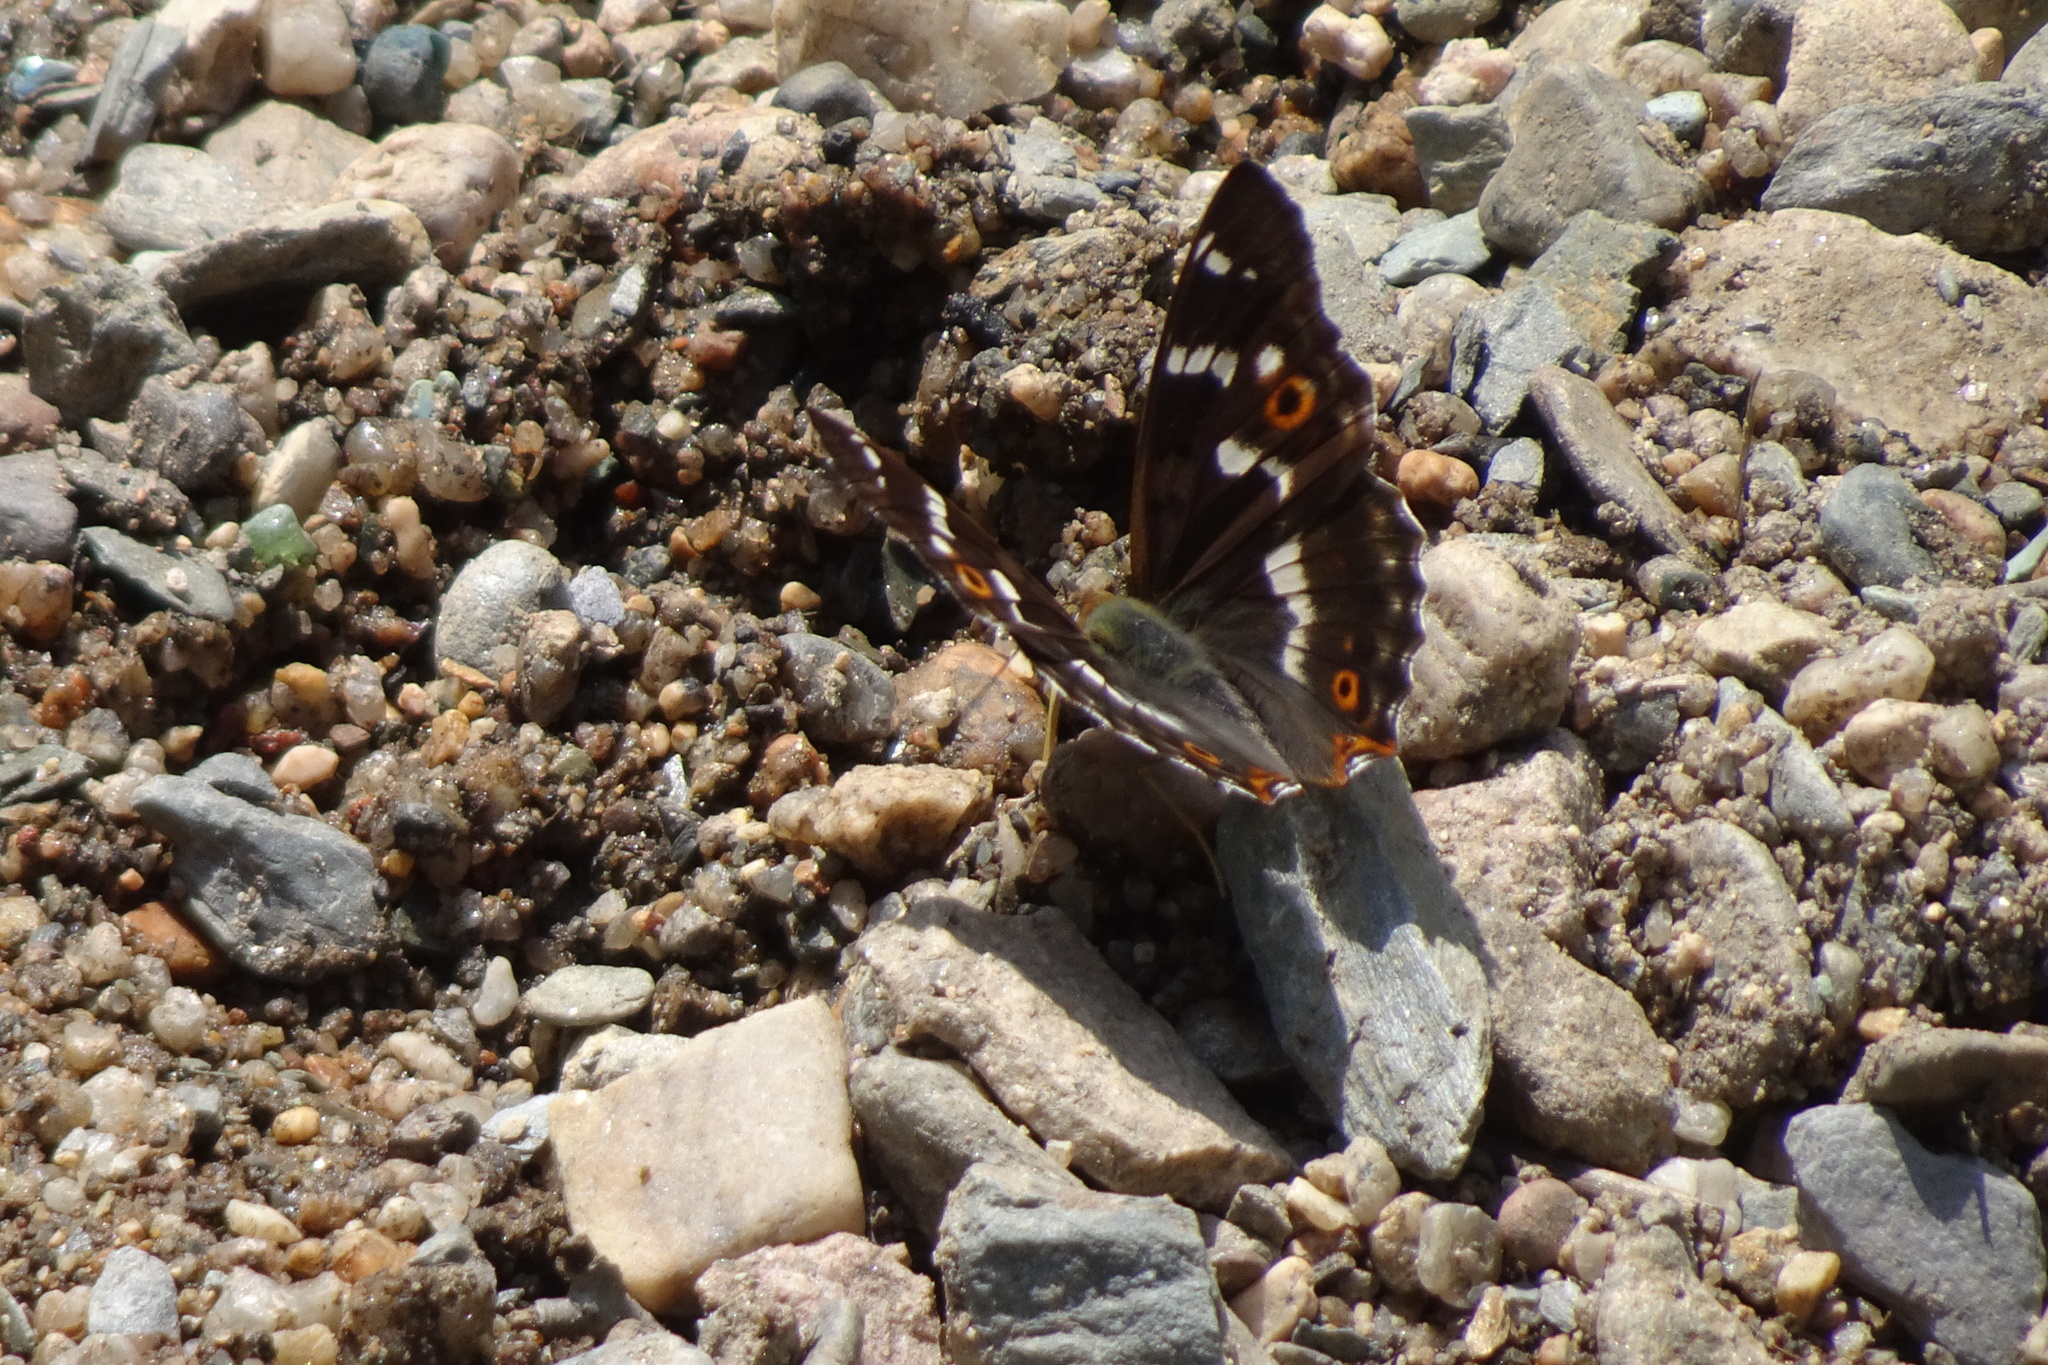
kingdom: Animalia
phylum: Arthropoda
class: Insecta
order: Lepidoptera
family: Nymphalidae
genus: Apatura
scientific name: Apatura ilia
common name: Lesser purple emperor
